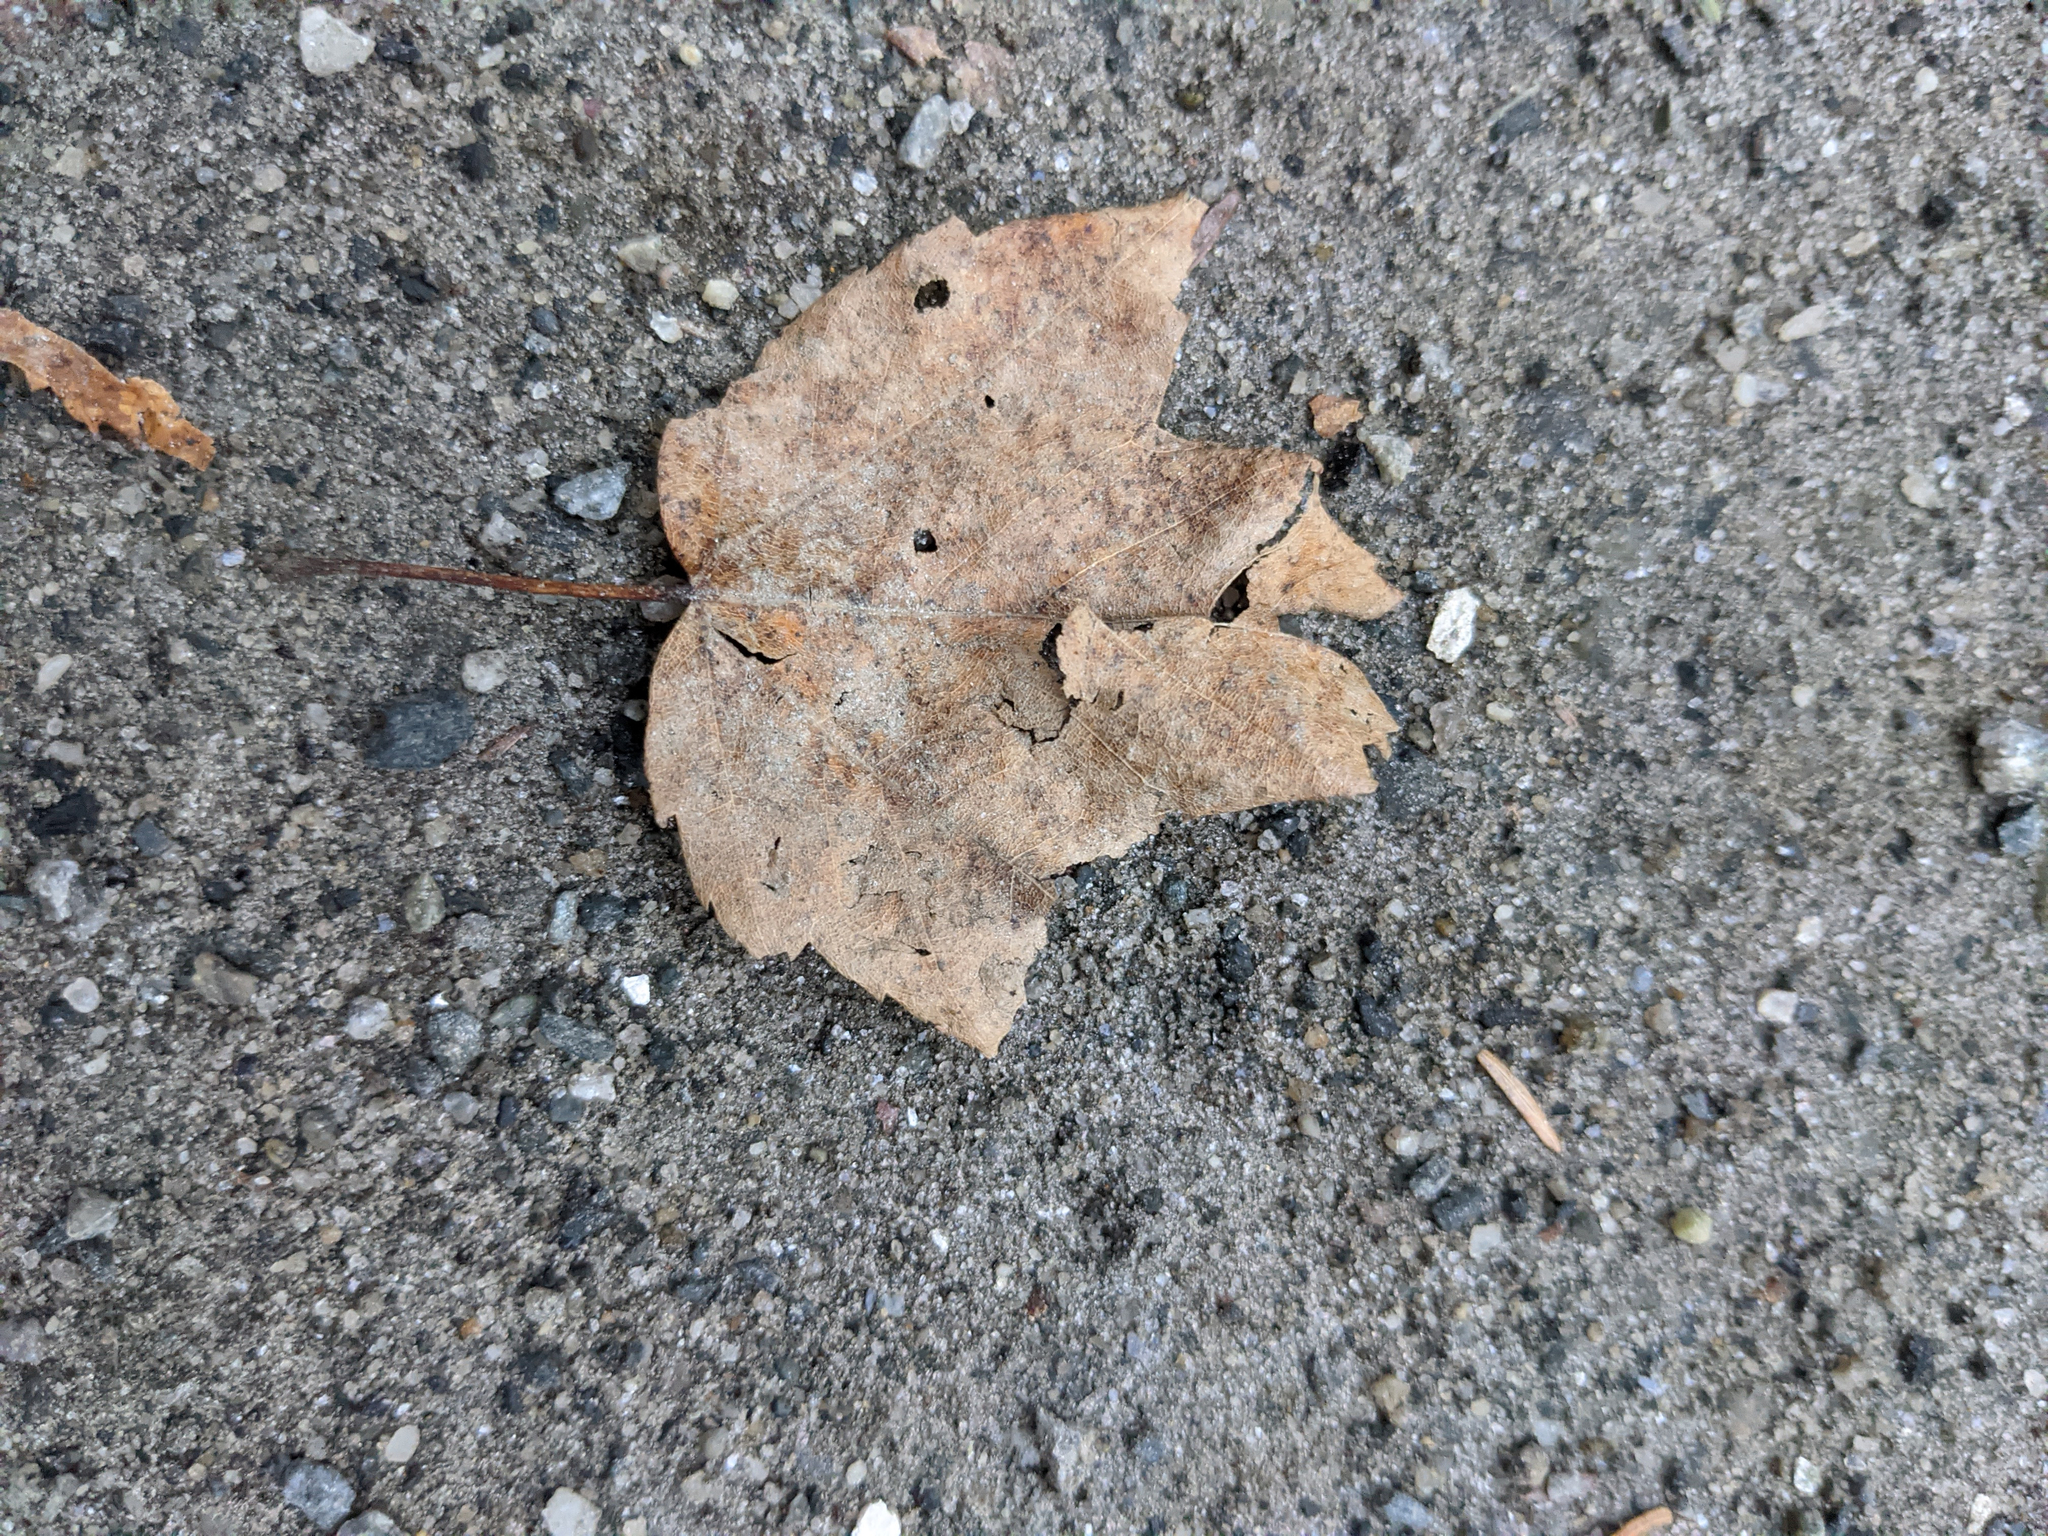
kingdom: Plantae
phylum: Tracheophyta
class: Magnoliopsida
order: Sapindales
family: Sapindaceae
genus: Acer
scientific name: Acer rubrum
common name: Red maple
